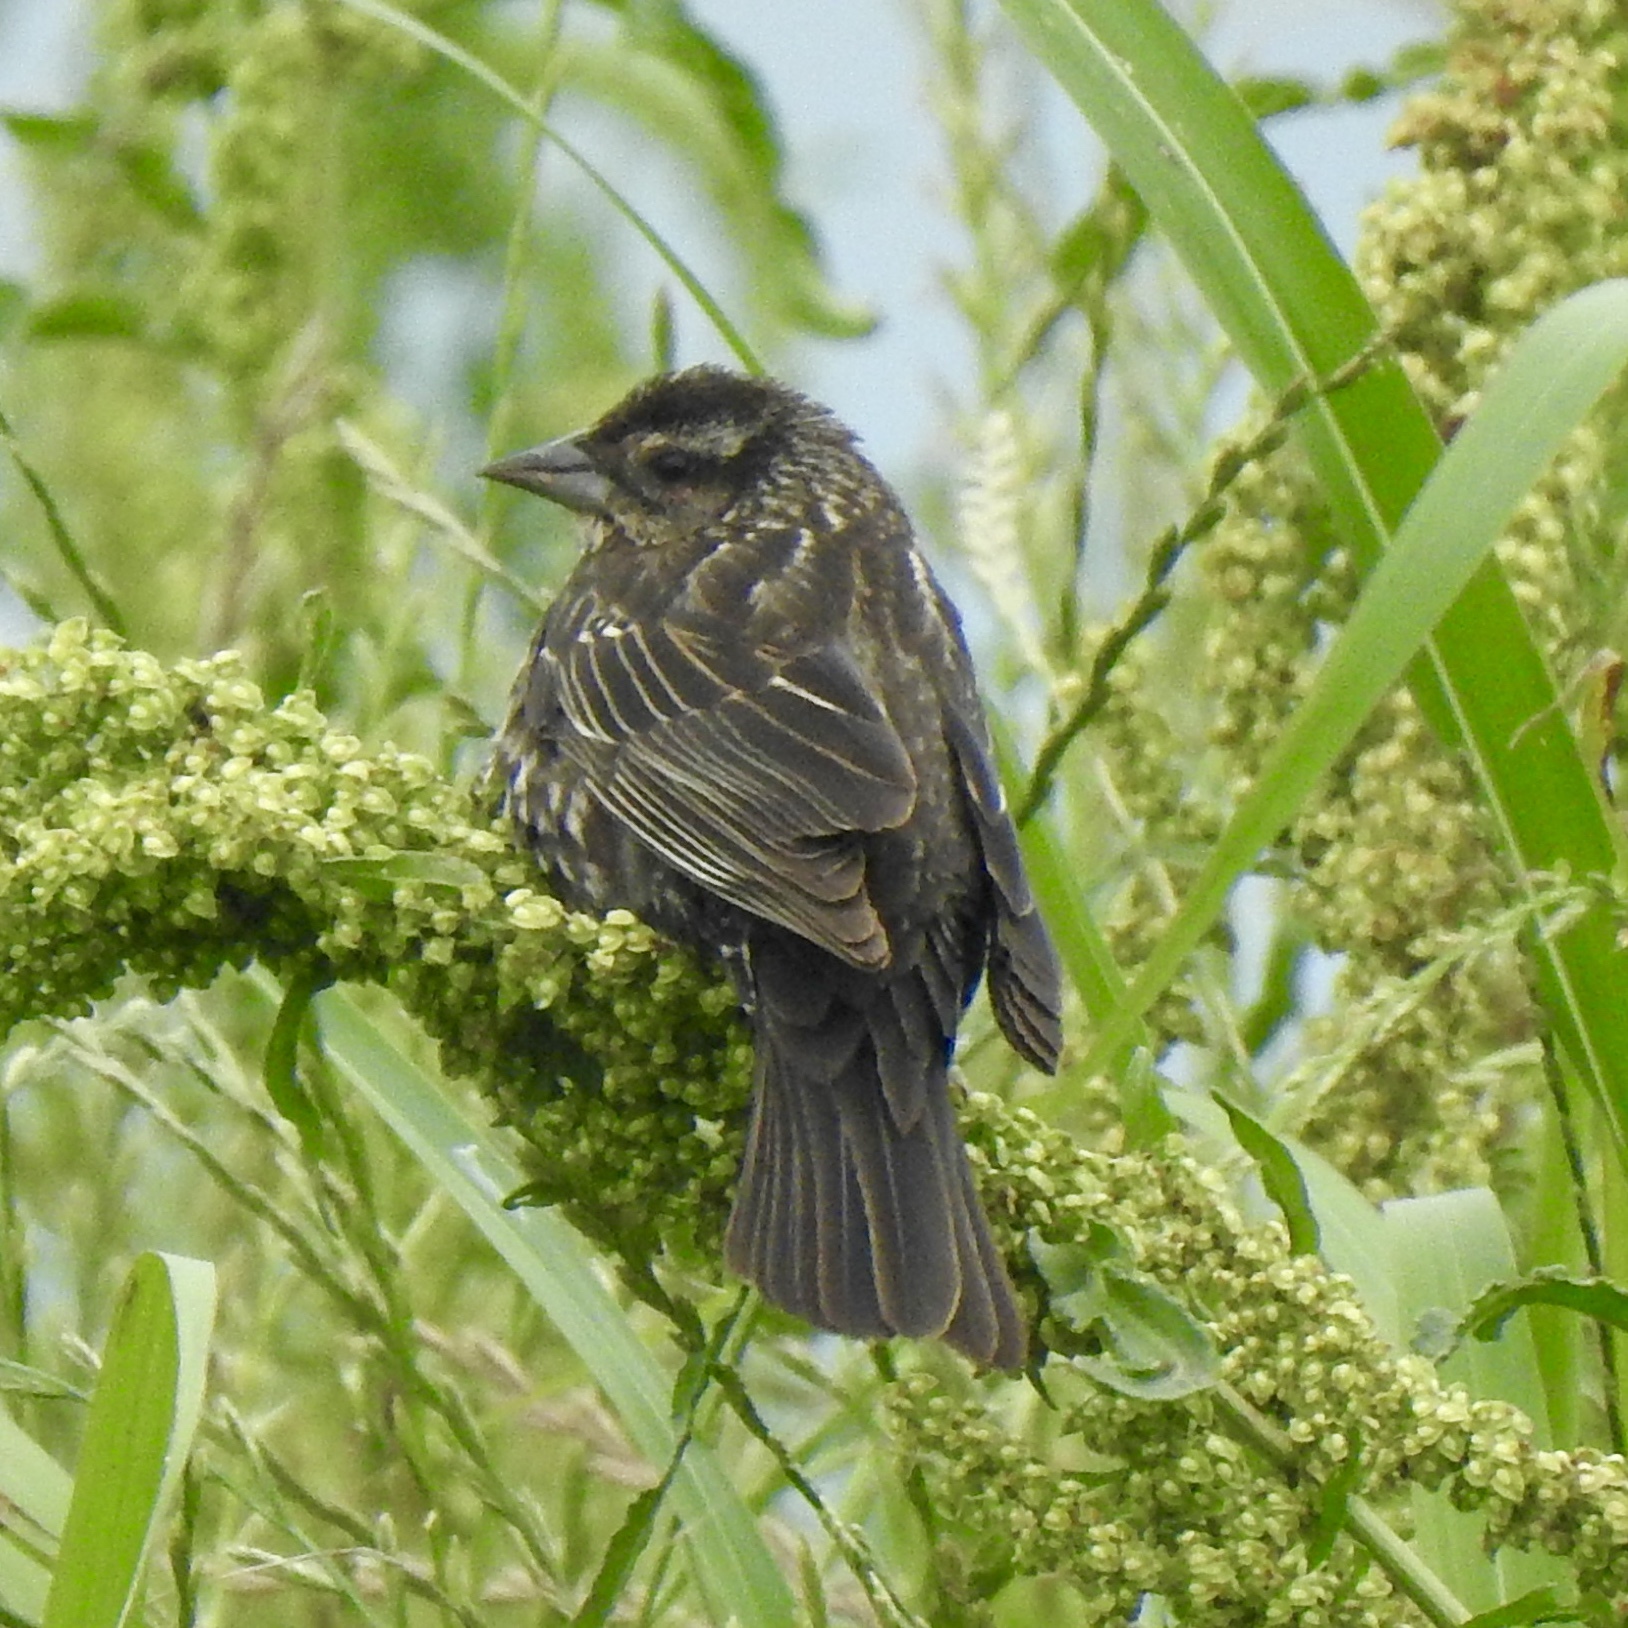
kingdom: Animalia
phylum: Chordata
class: Aves
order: Passeriformes
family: Icteridae
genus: Agelaius
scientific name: Agelaius phoeniceus
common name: Red-winged blackbird
